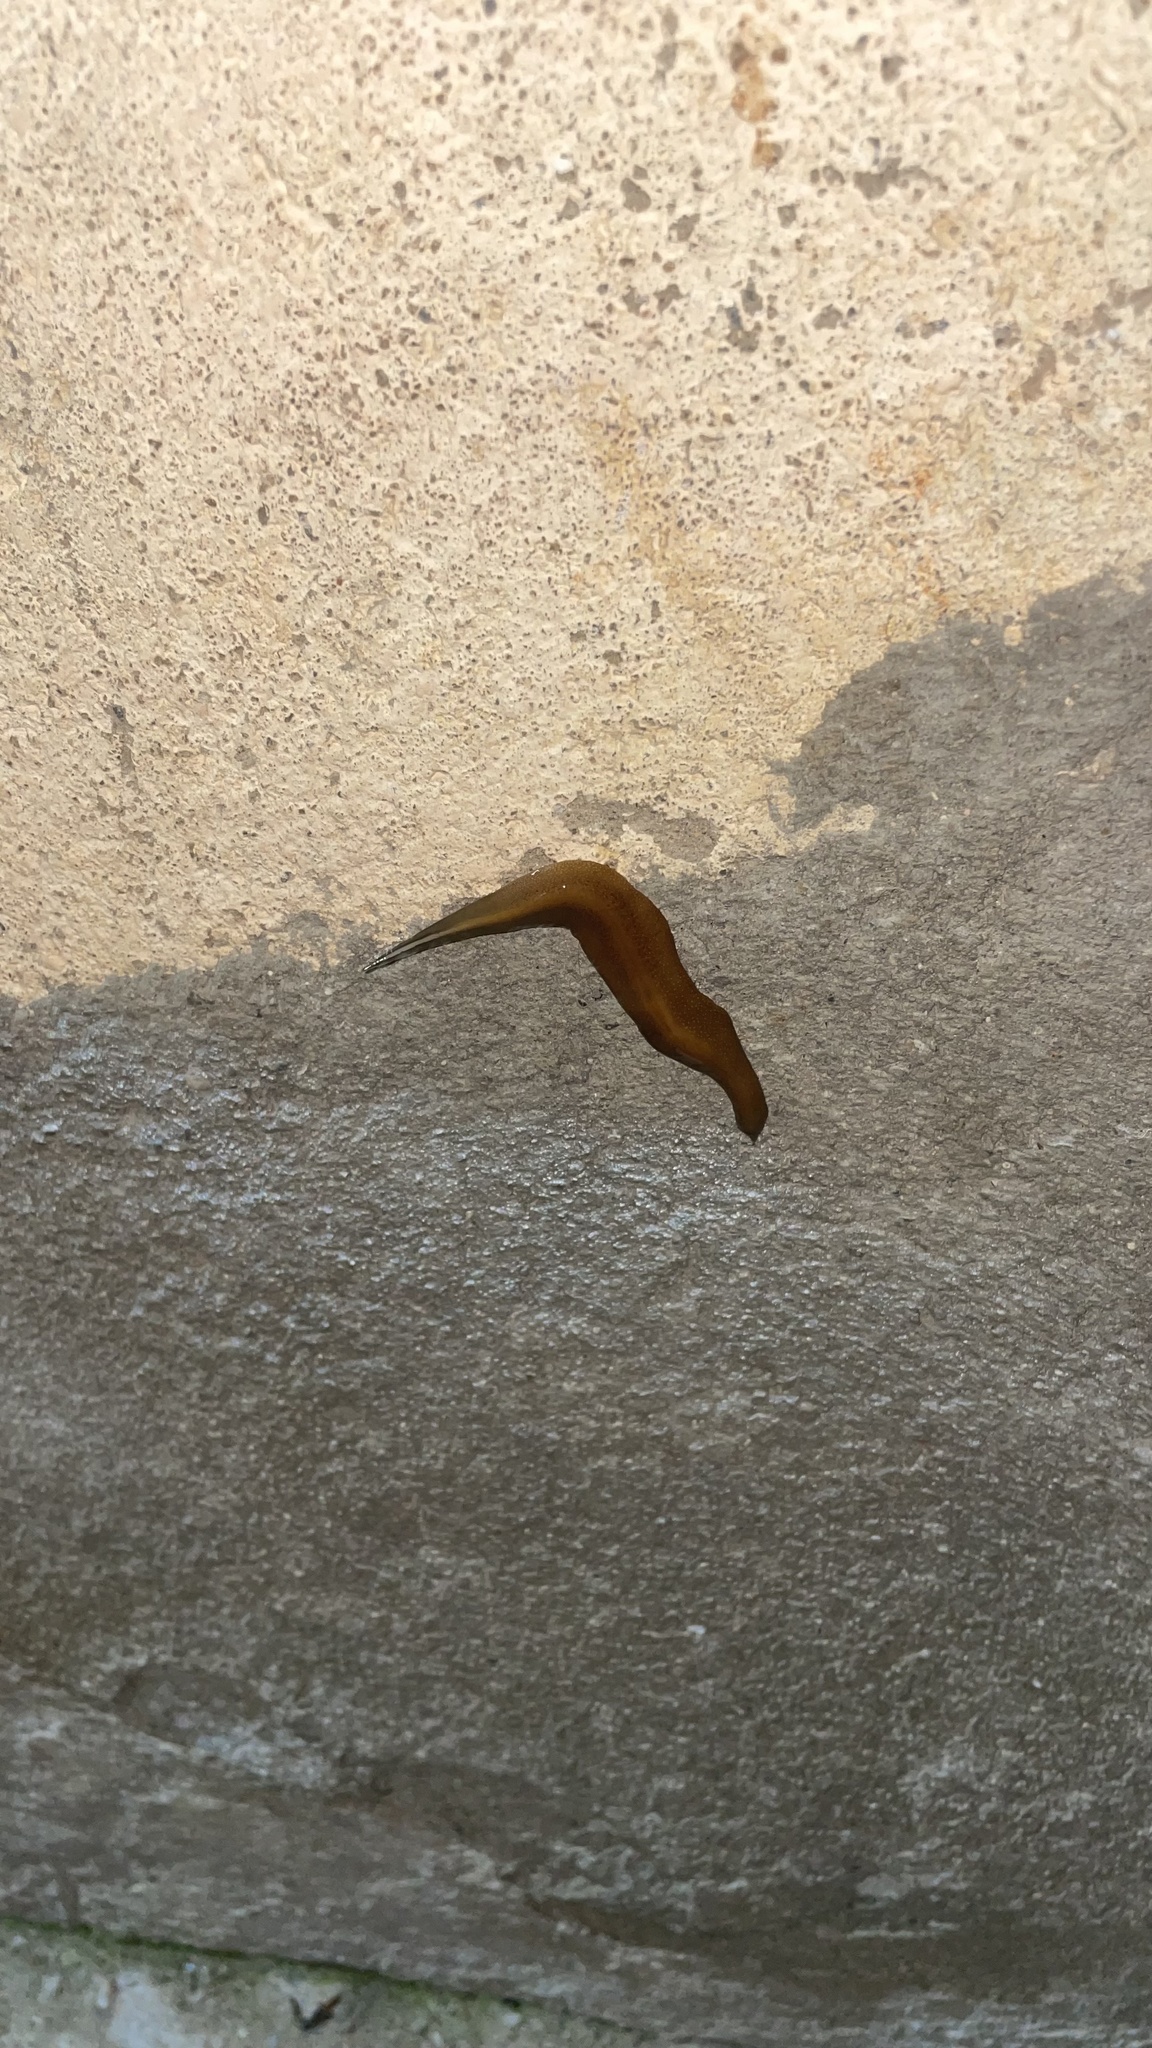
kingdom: Animalia
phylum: Platyhelminthes
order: Tricladida
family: Geoplanidae
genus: Obama
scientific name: Obama burmeisteri
